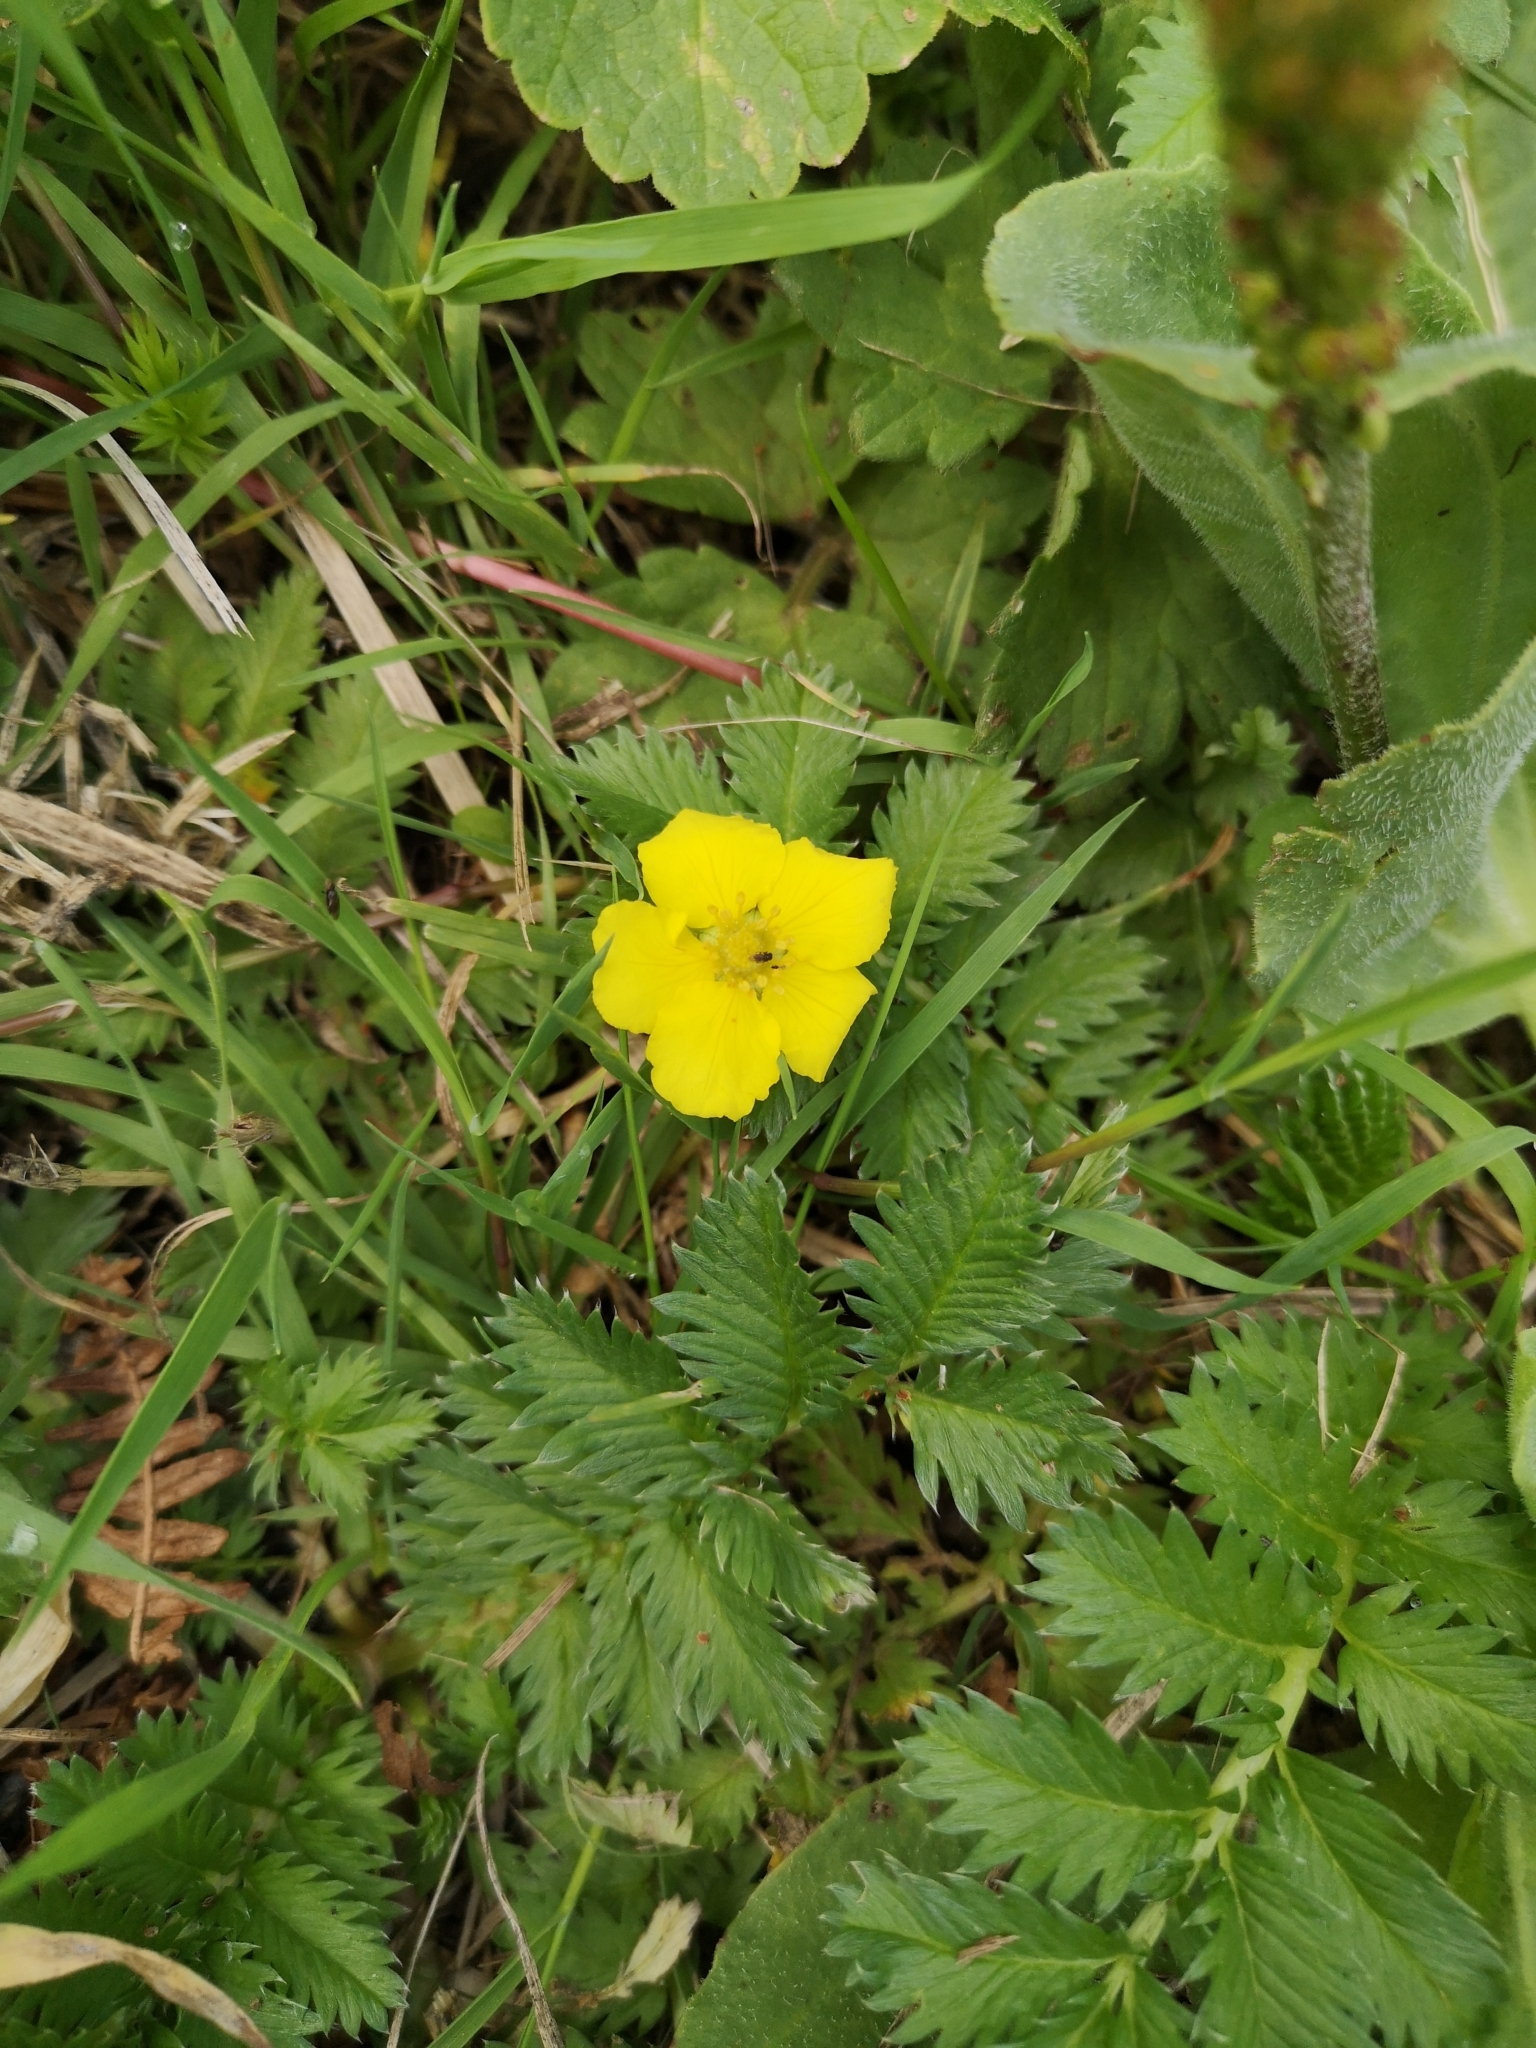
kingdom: Plantae
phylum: Tracheophyta
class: Magnoliopsida
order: Rosales
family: Rosaceae
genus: Argentina
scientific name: Argentina anserina
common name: Common silverweed
